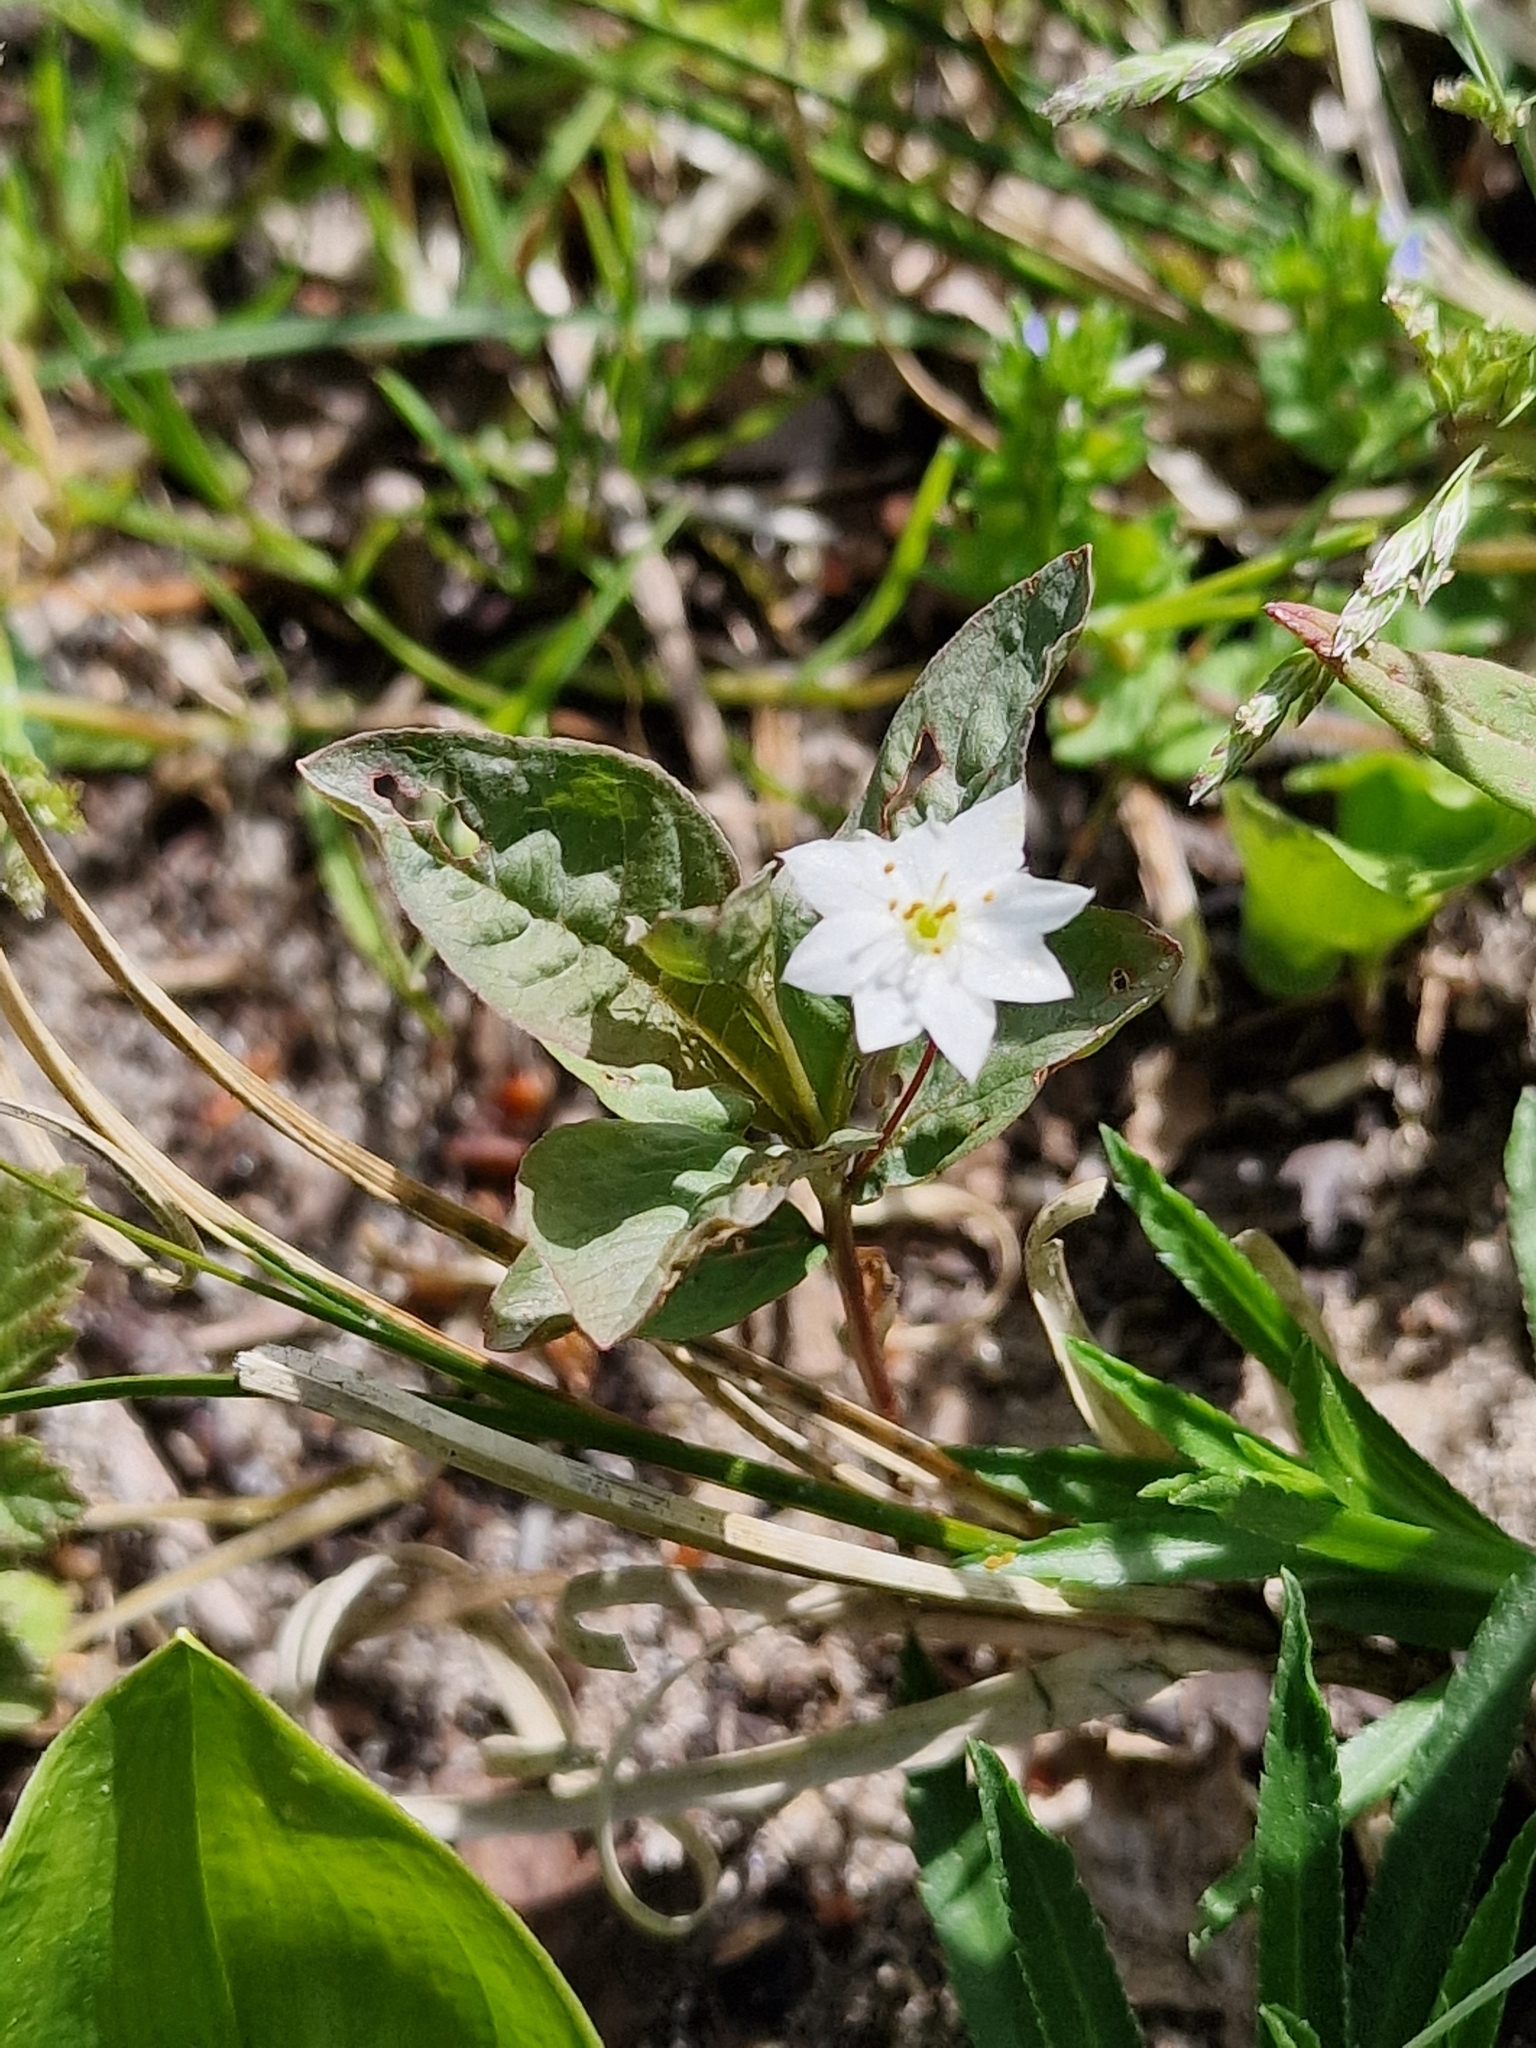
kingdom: Plantae
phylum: Tracheophyta
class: Magnoliopsida
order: Ericales
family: Primulaceae
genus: Lysimachia
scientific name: Lysimachia europaea
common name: Arctic starflower
